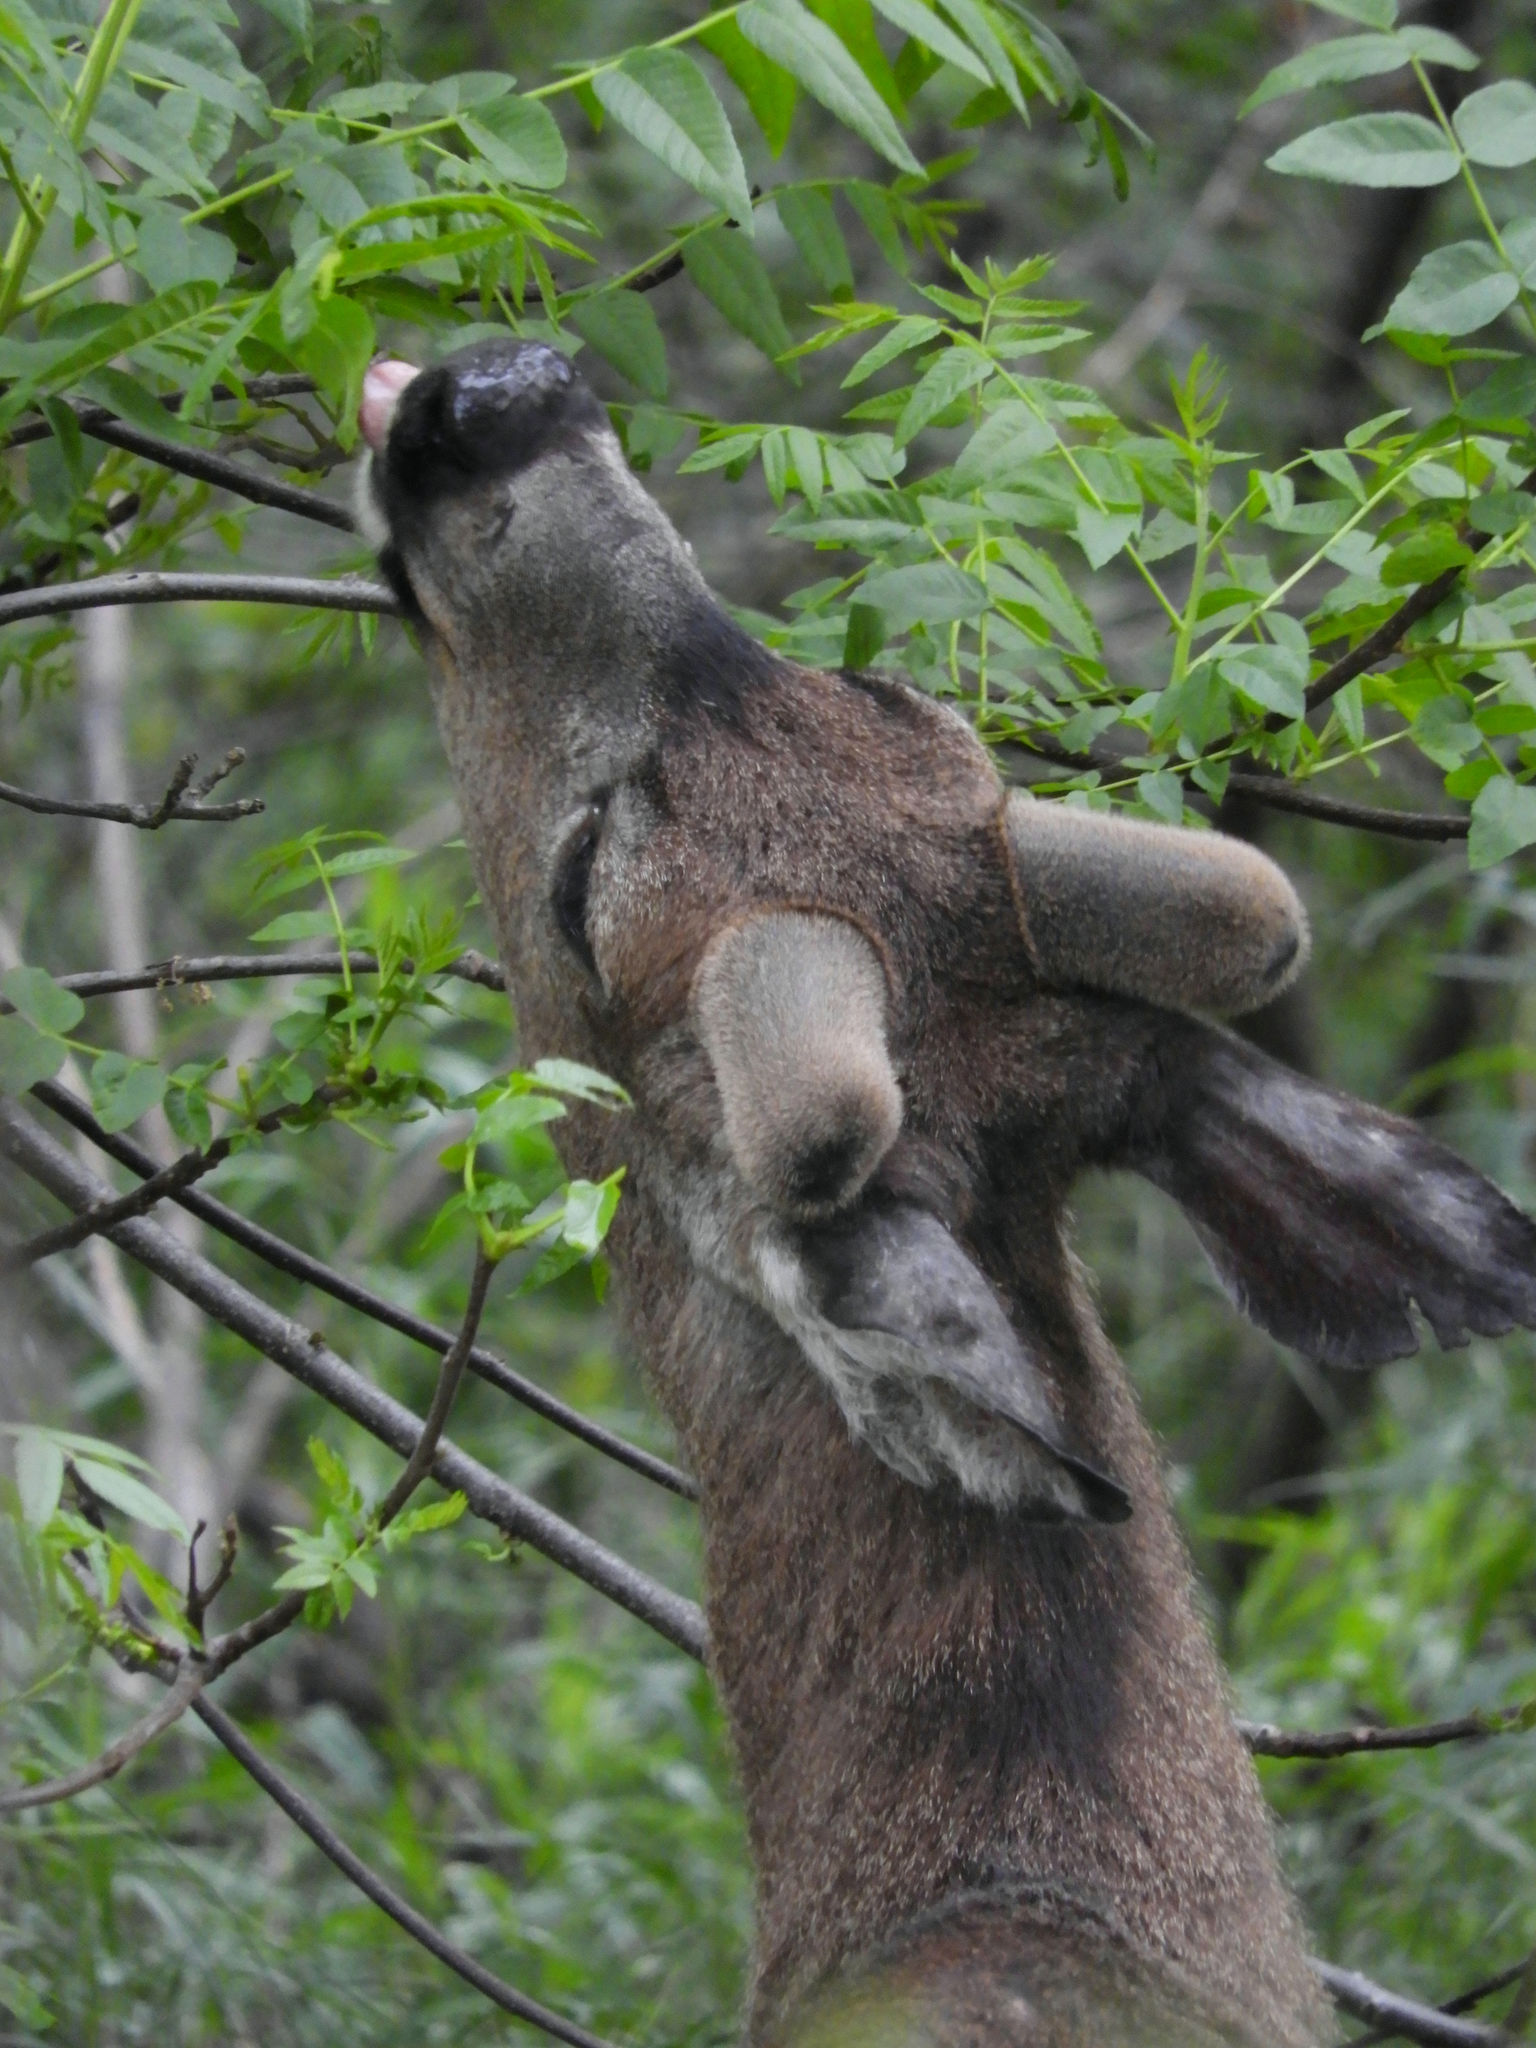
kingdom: Animalia
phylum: Chordata
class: Mammalia
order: Artiodactyla
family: Cervidae
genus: Odocoileus
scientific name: Odocoileus hemionus
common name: Mule deer
